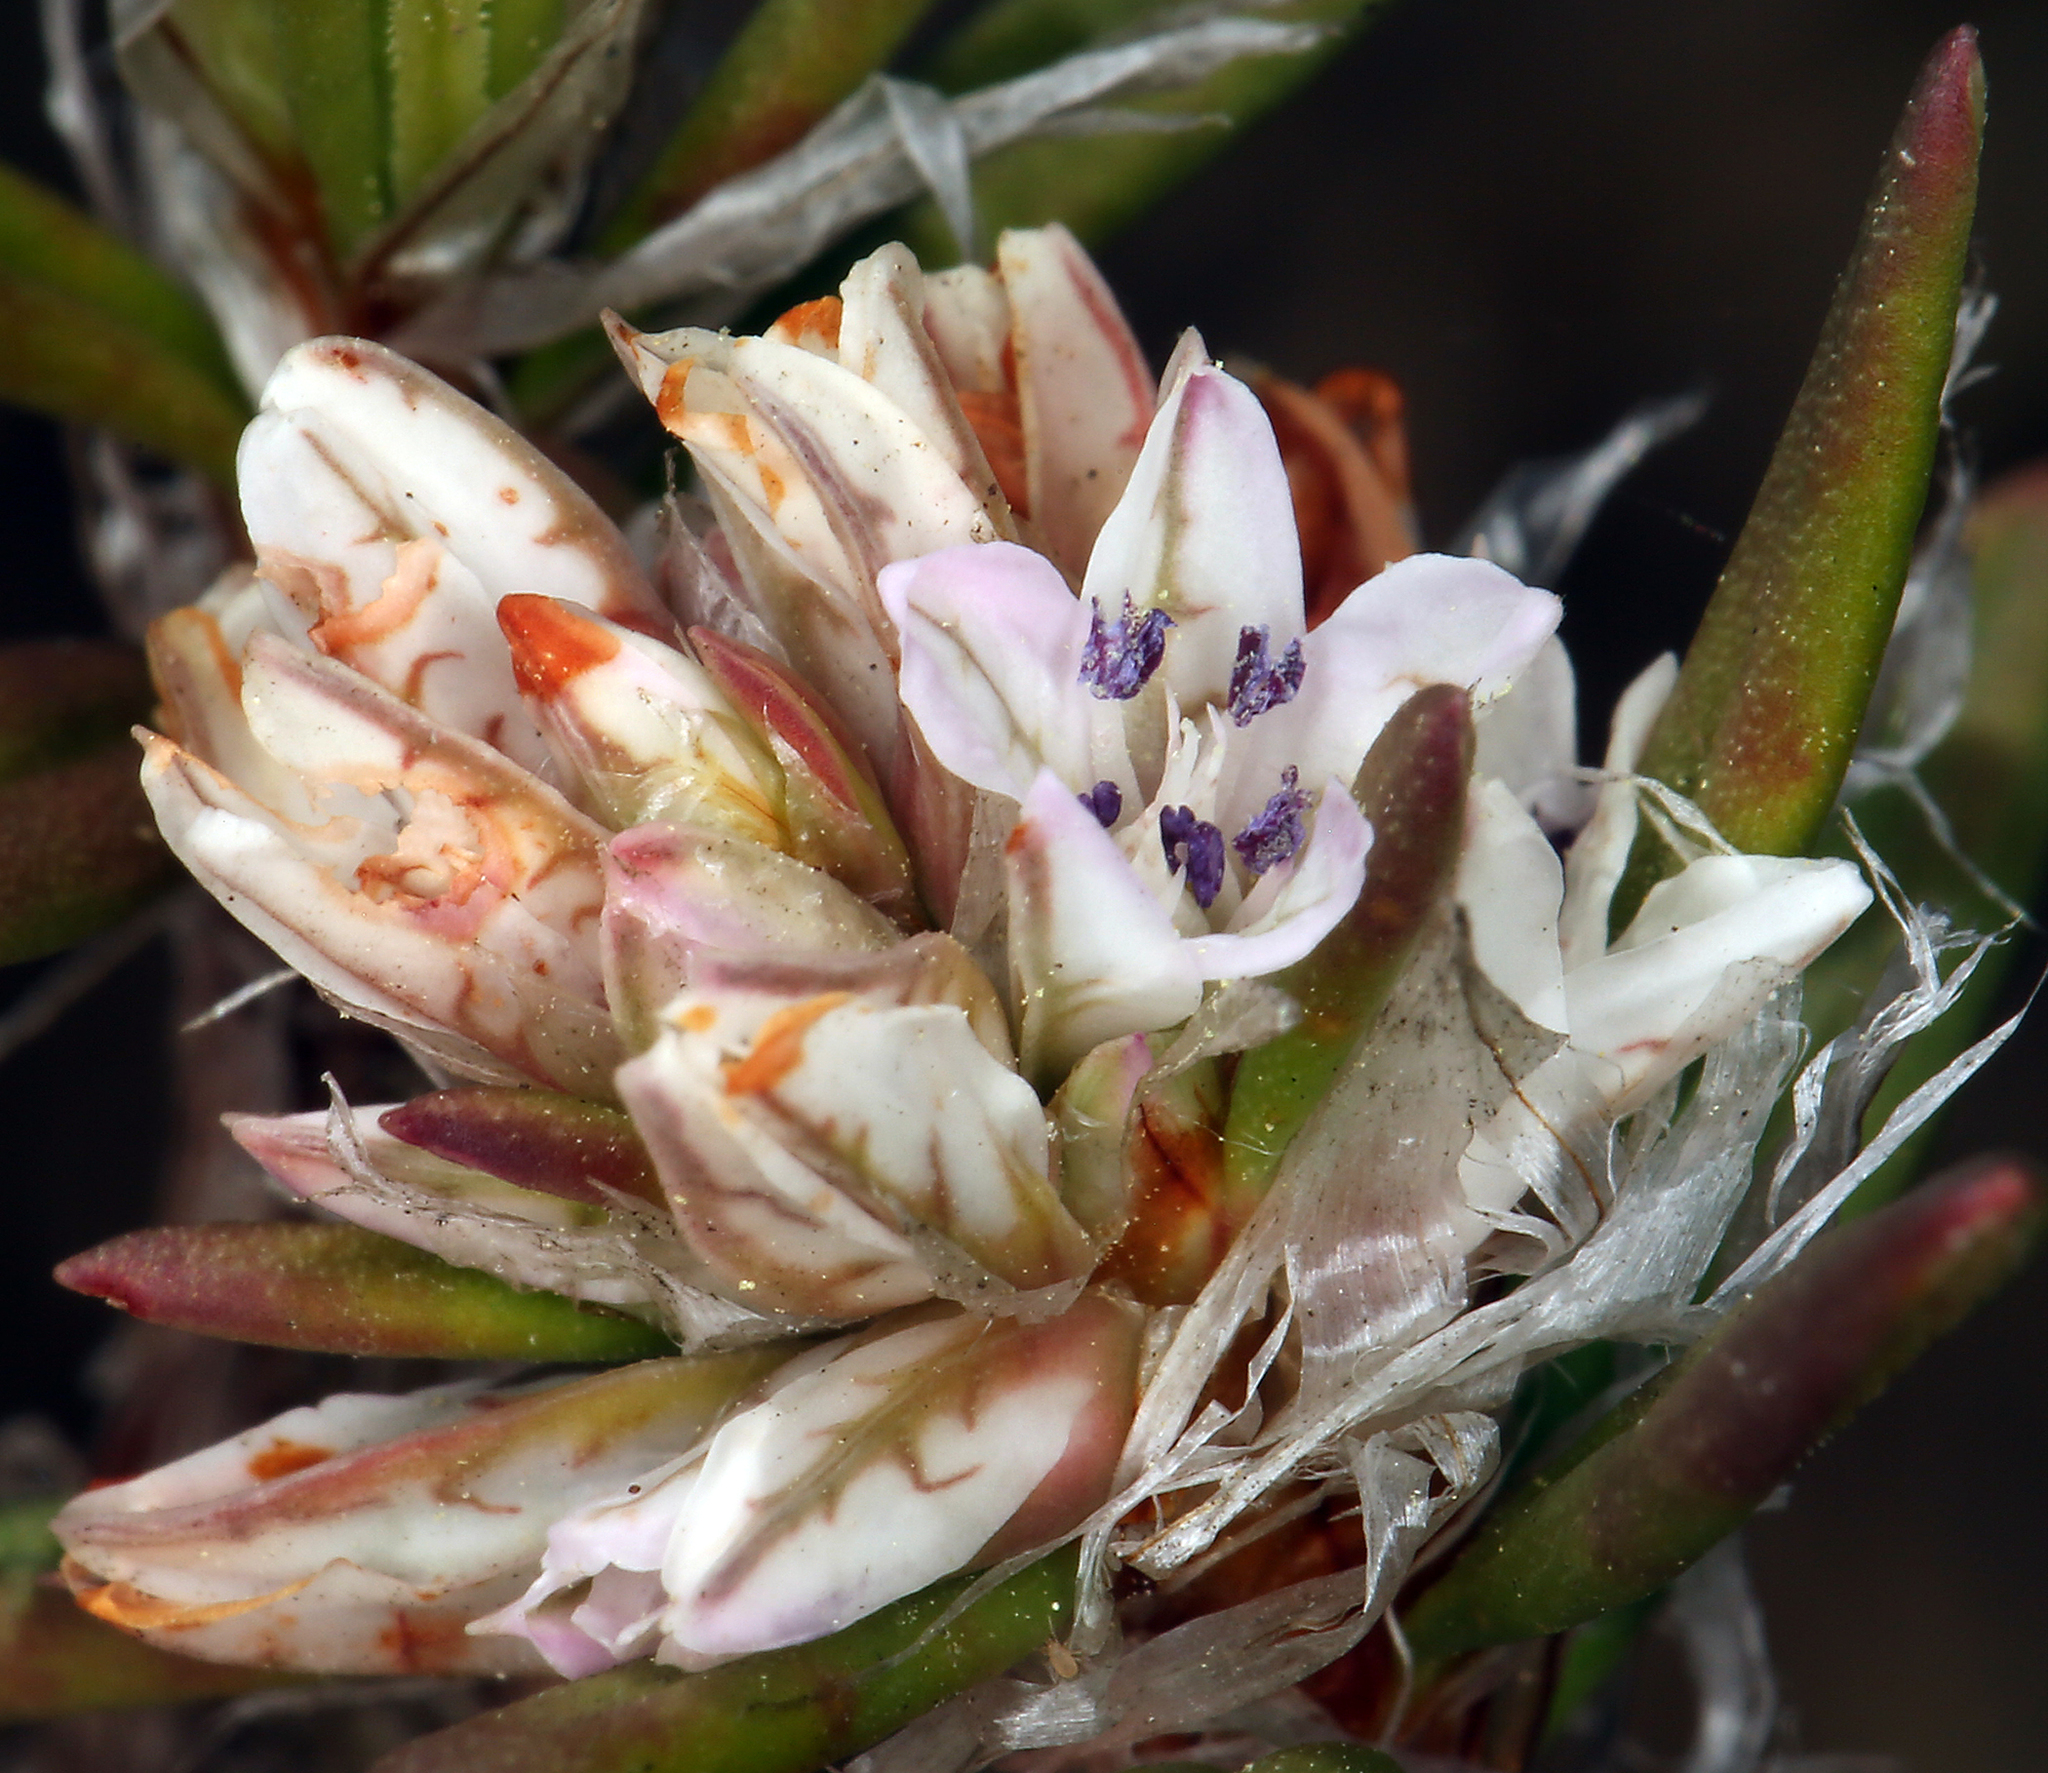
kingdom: Plantae
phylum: Tracheophyta
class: Magnoliopsida
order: Caryophyllales
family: Polygonaceae
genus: Polygonum
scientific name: Polygonum paronychia
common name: Dune knotweed
